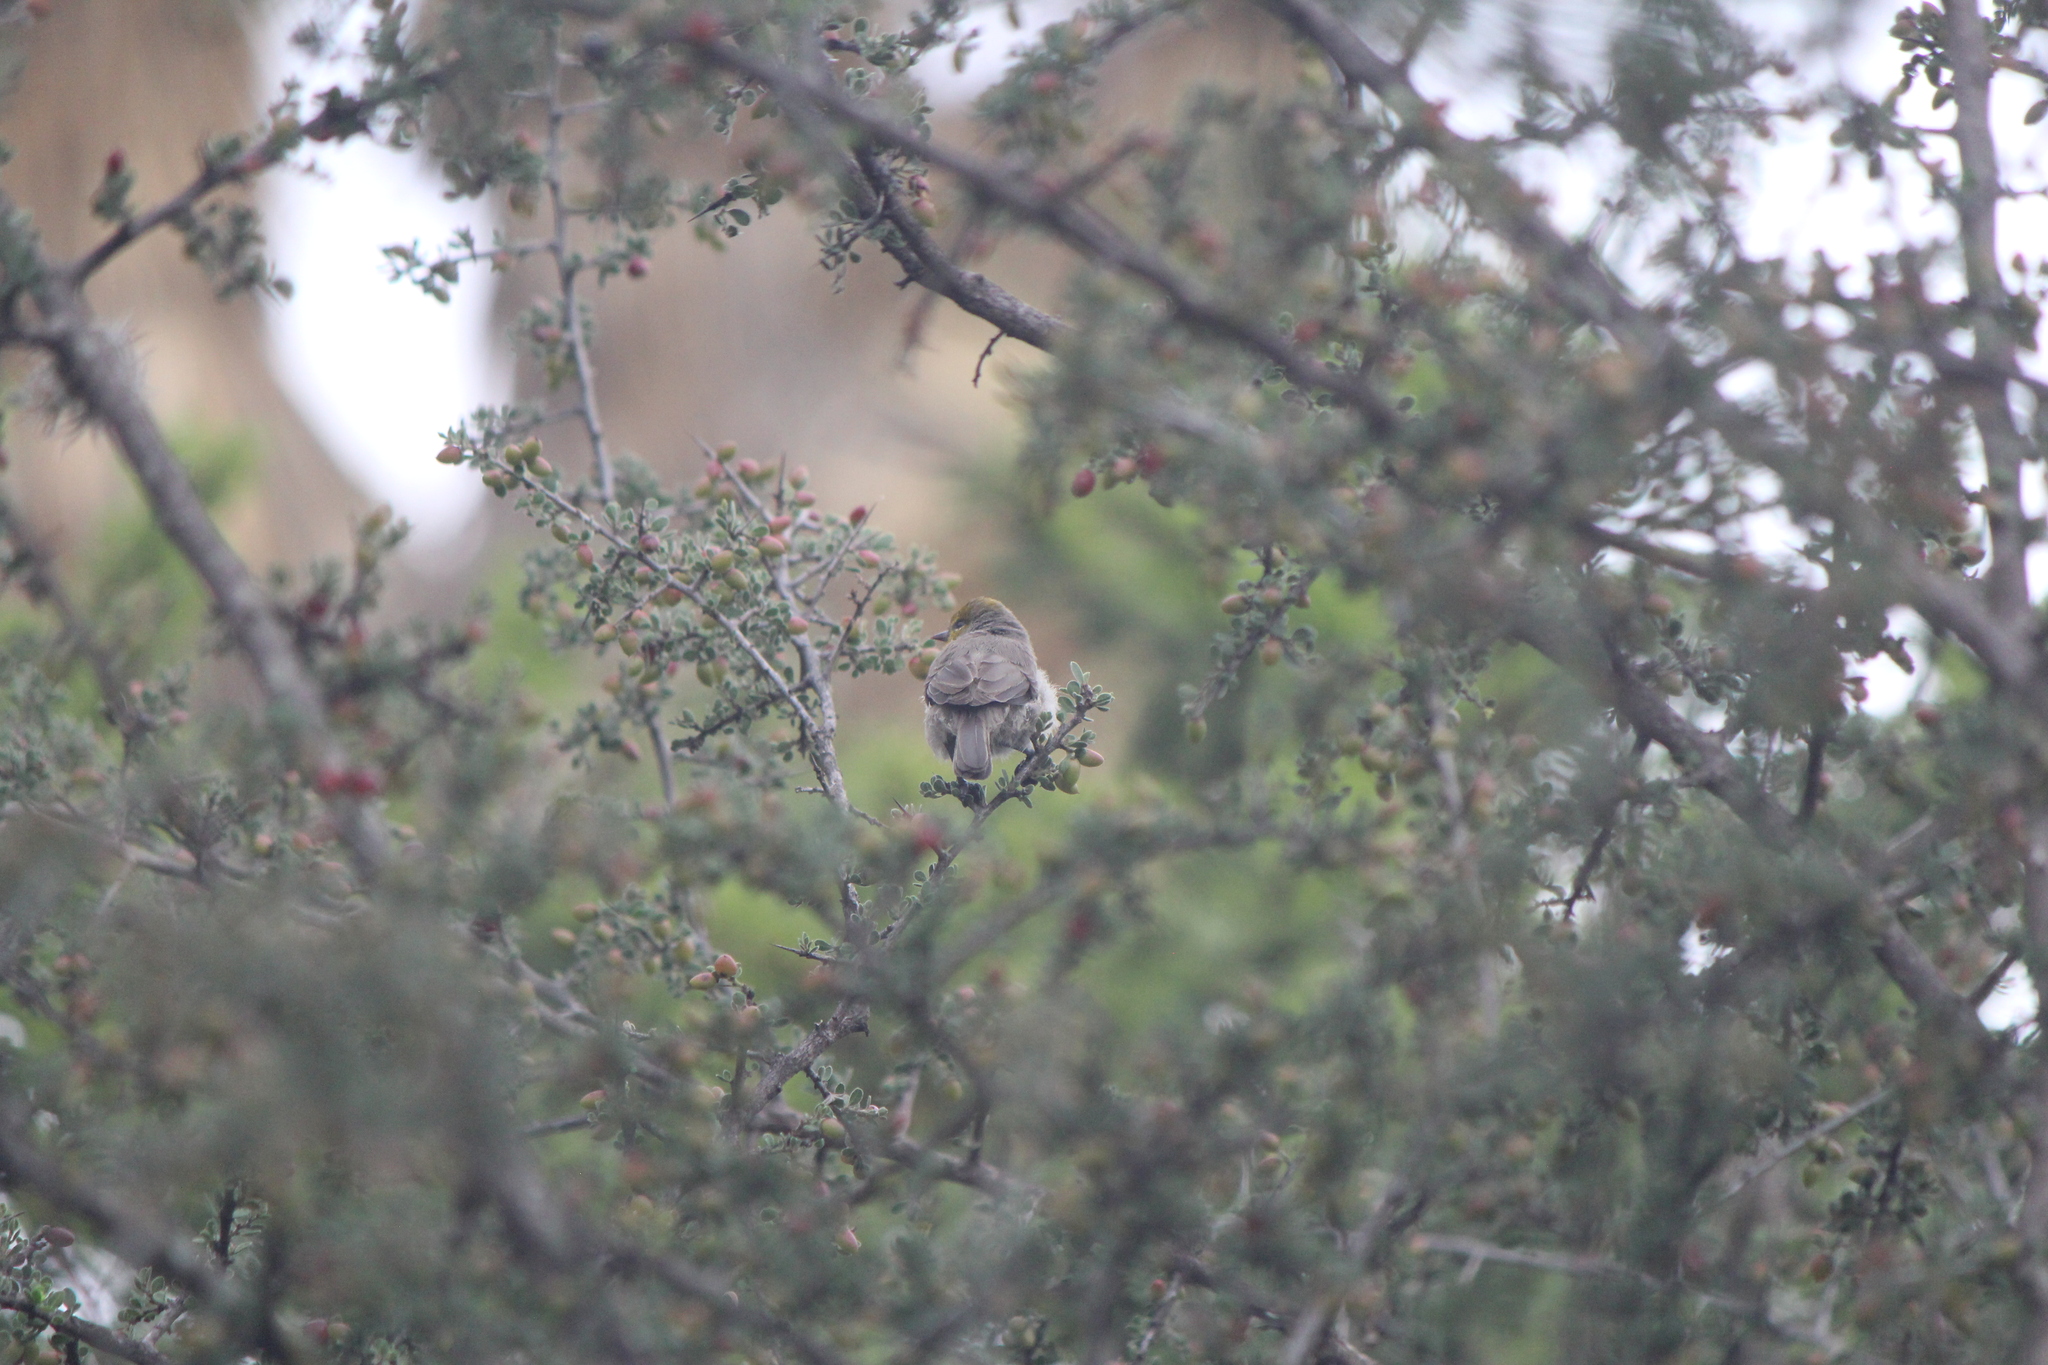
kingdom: Animalia
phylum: Chordata
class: Aves
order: Passeriformes
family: Remizidae
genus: Auriparus
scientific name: Auriparus flaviceps
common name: Verdin
